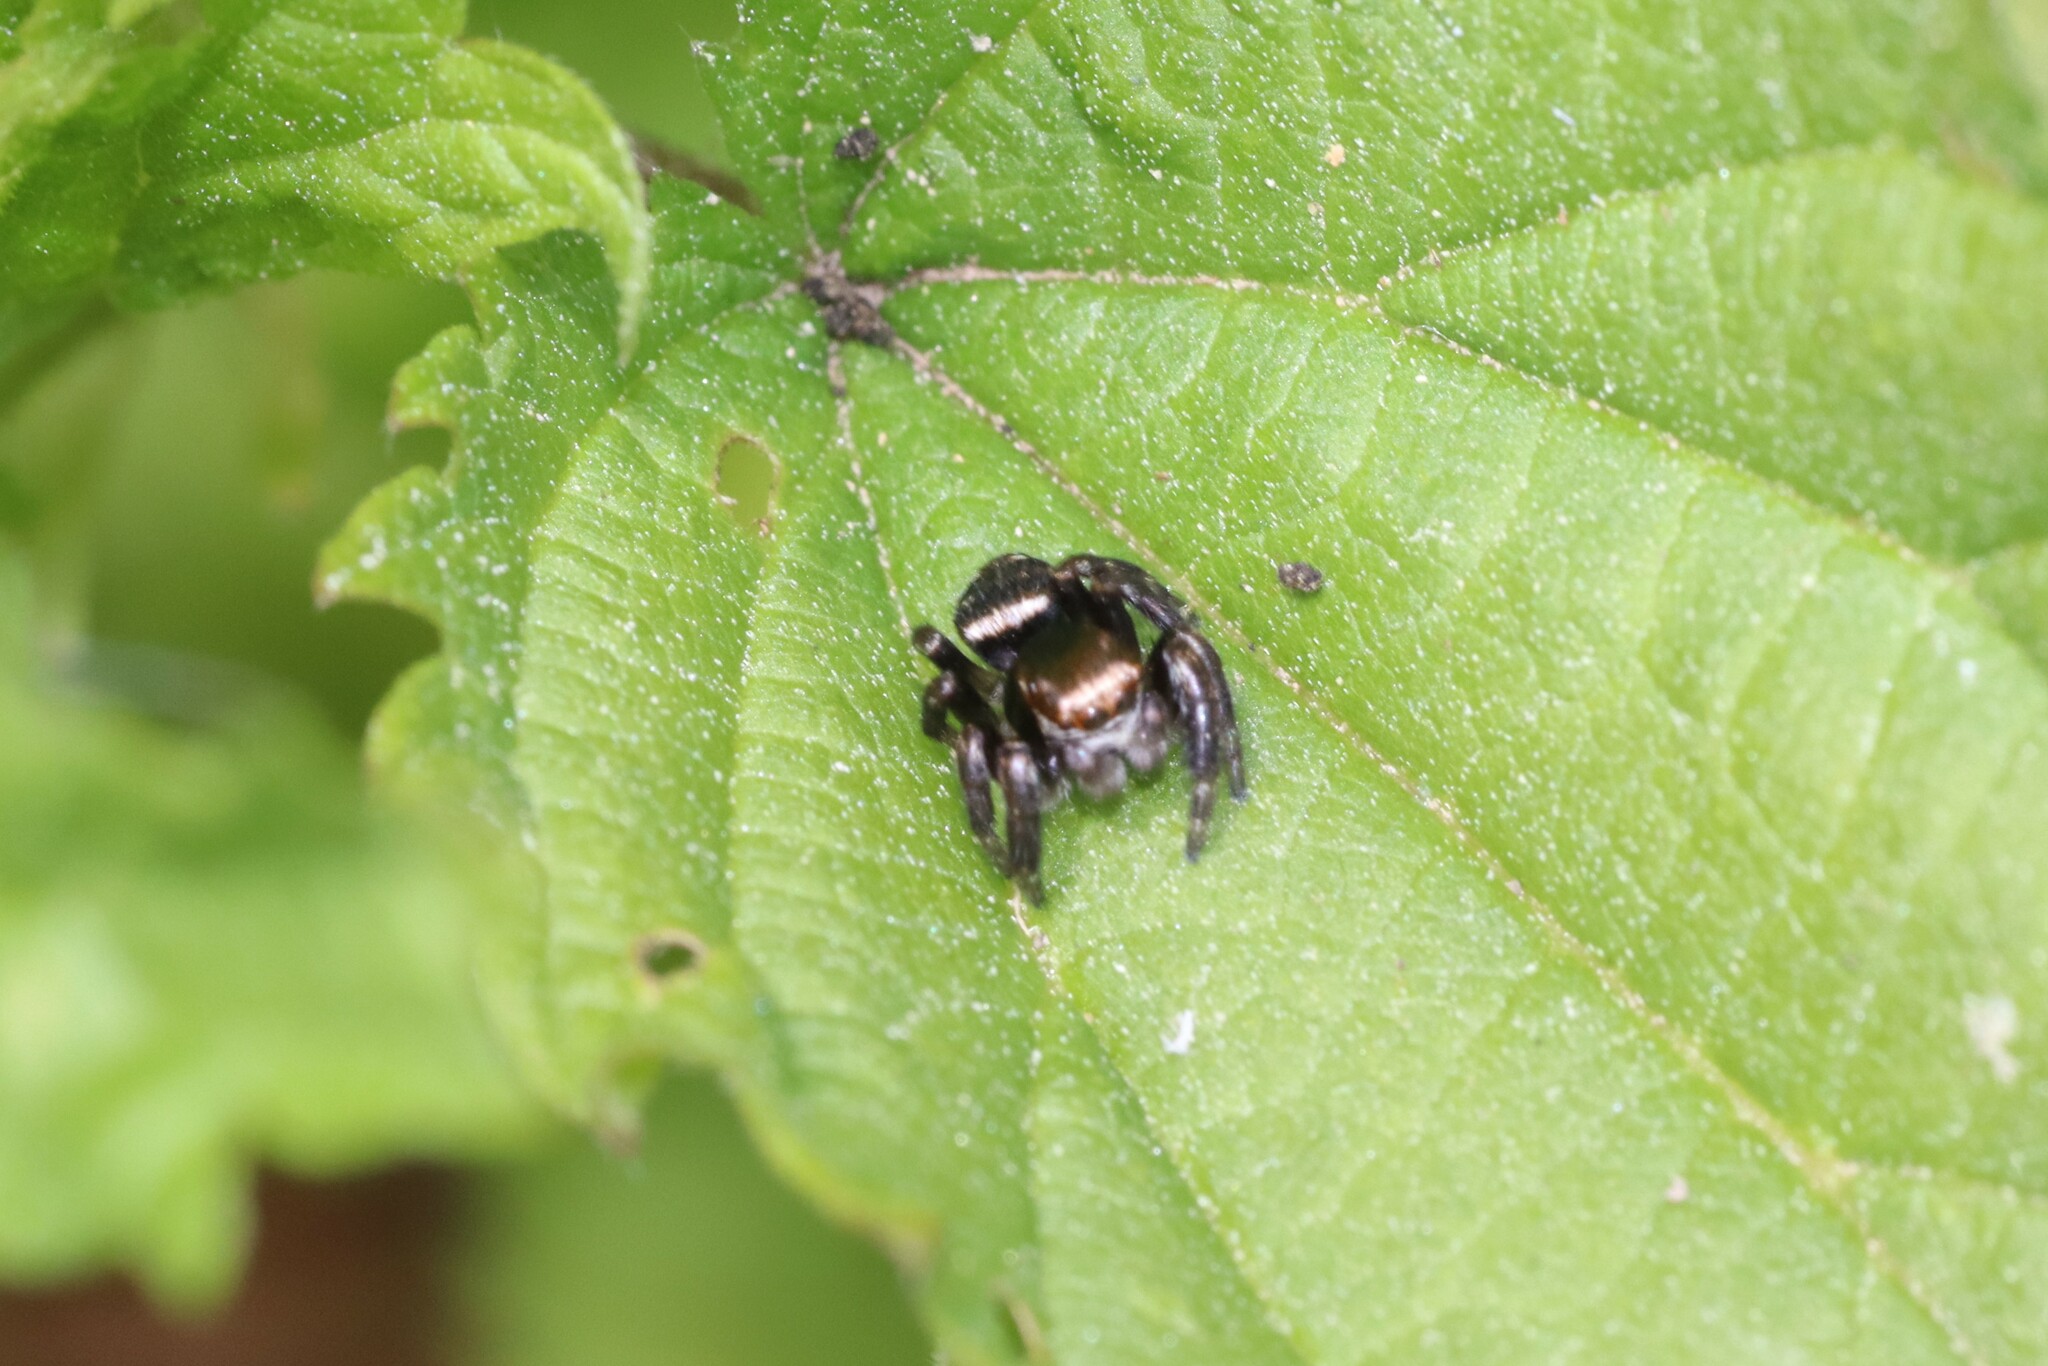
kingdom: Animalia
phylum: Arthropoda
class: Arachnida
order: Araneae
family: Salticidae
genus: Evarcha
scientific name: Evarcha arcuata
